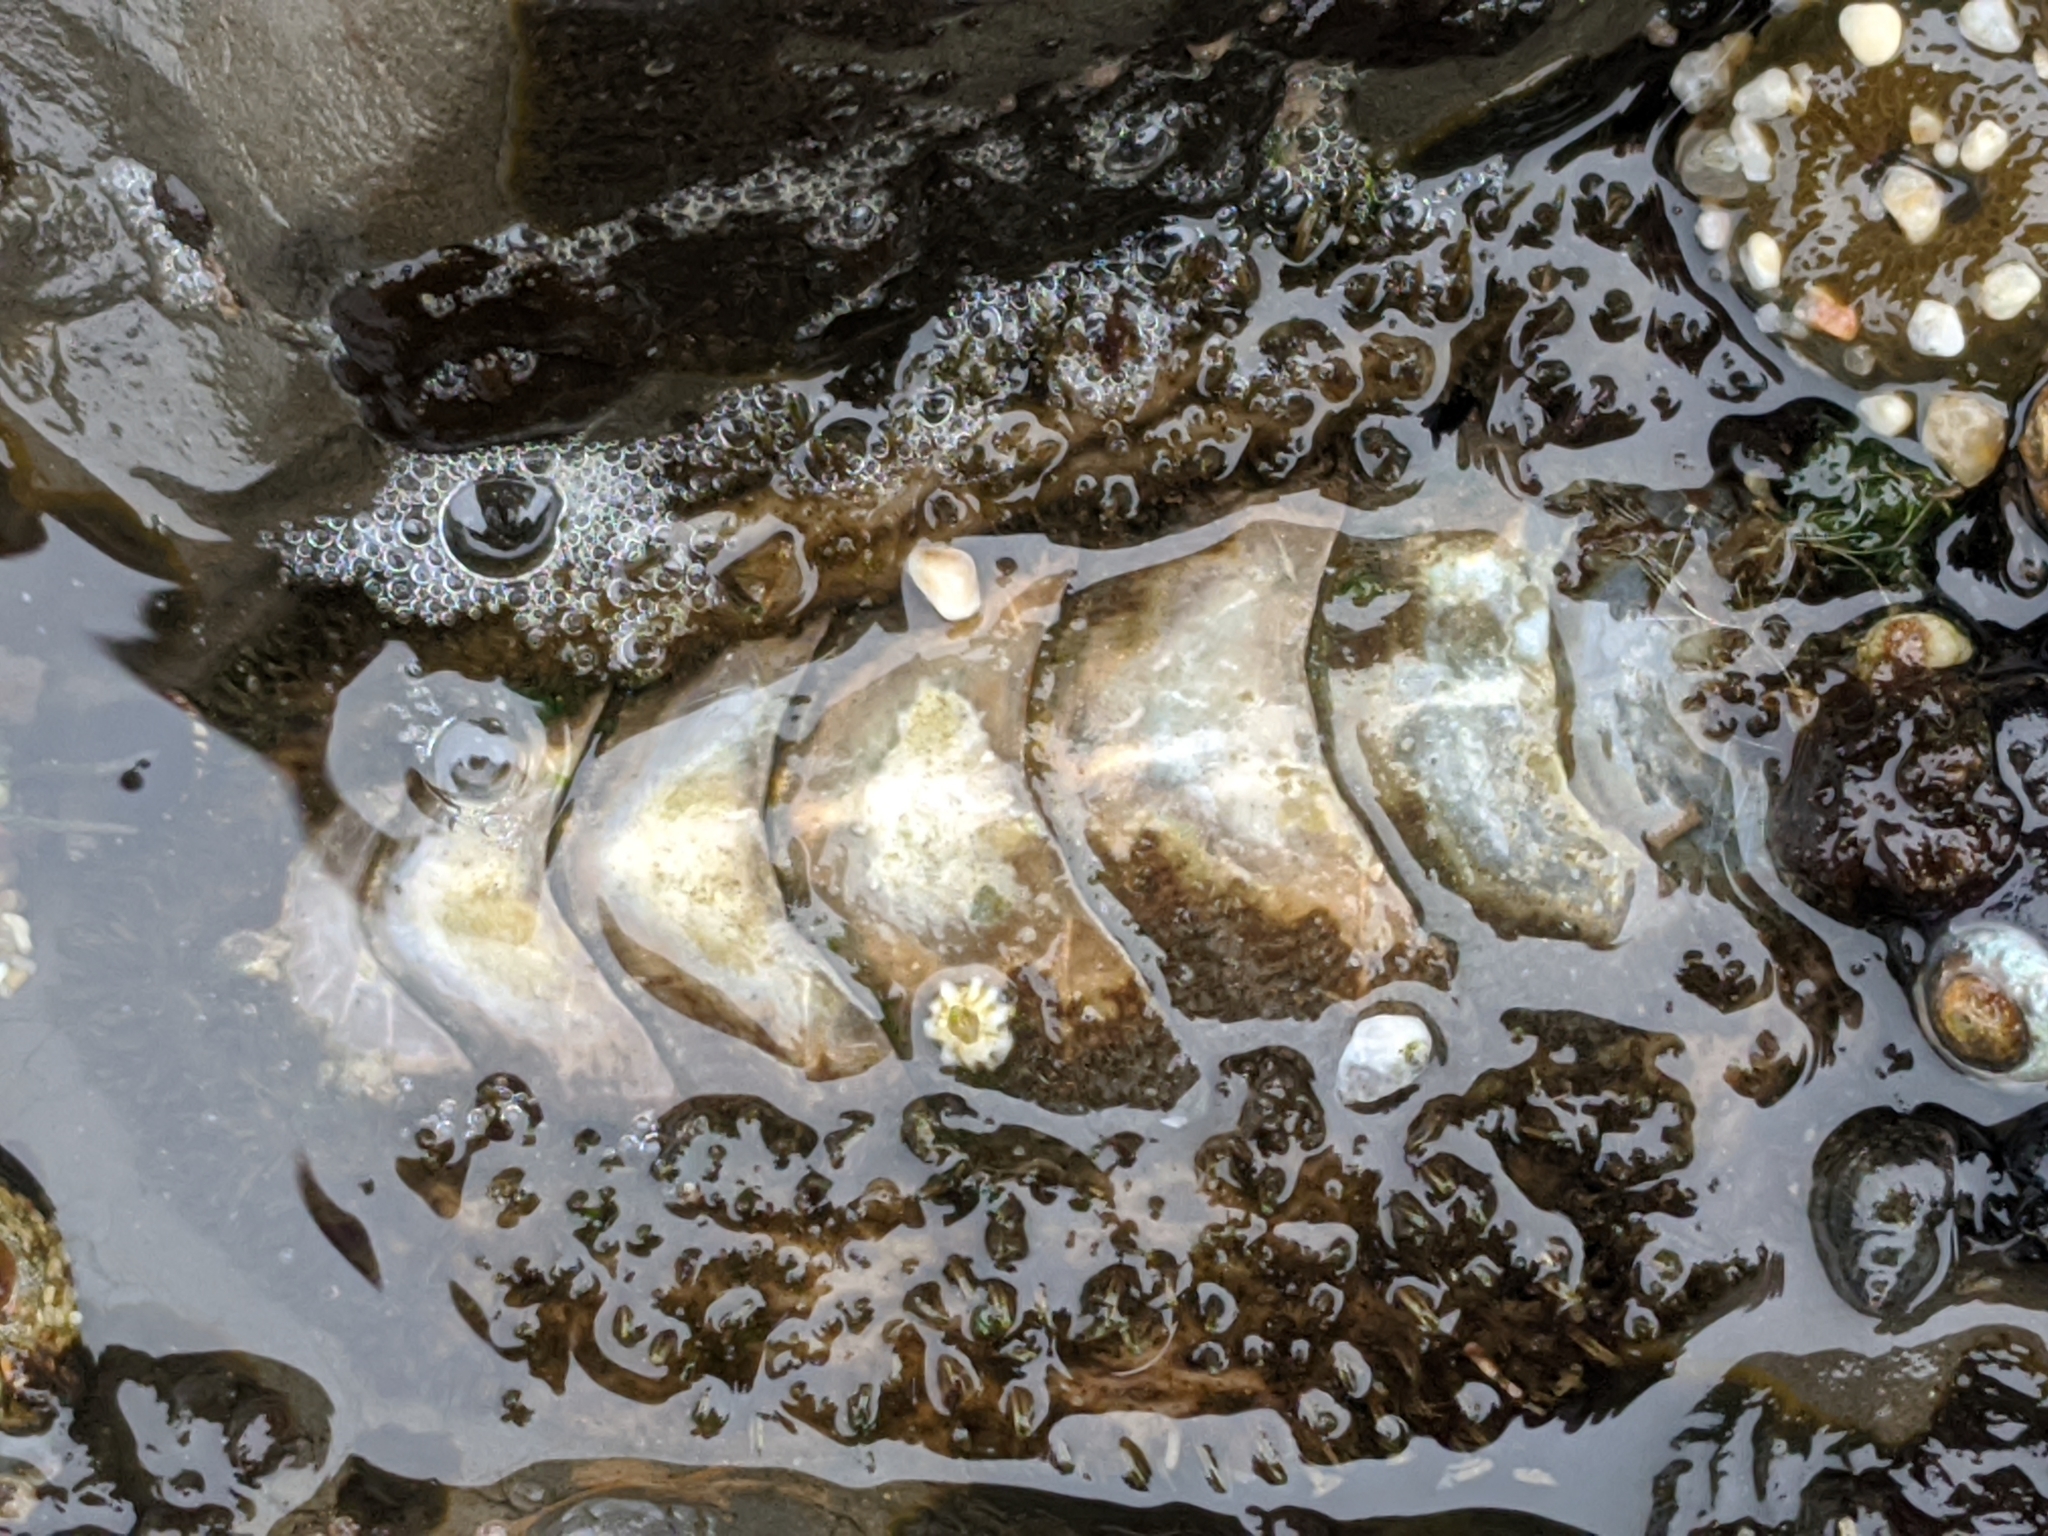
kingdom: Animalia
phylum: Mollusca
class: Polyplacophora
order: Chitonida
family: Mopaliidae
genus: Mopalia
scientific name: Mopalia muscosa
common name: Mossy chiton
